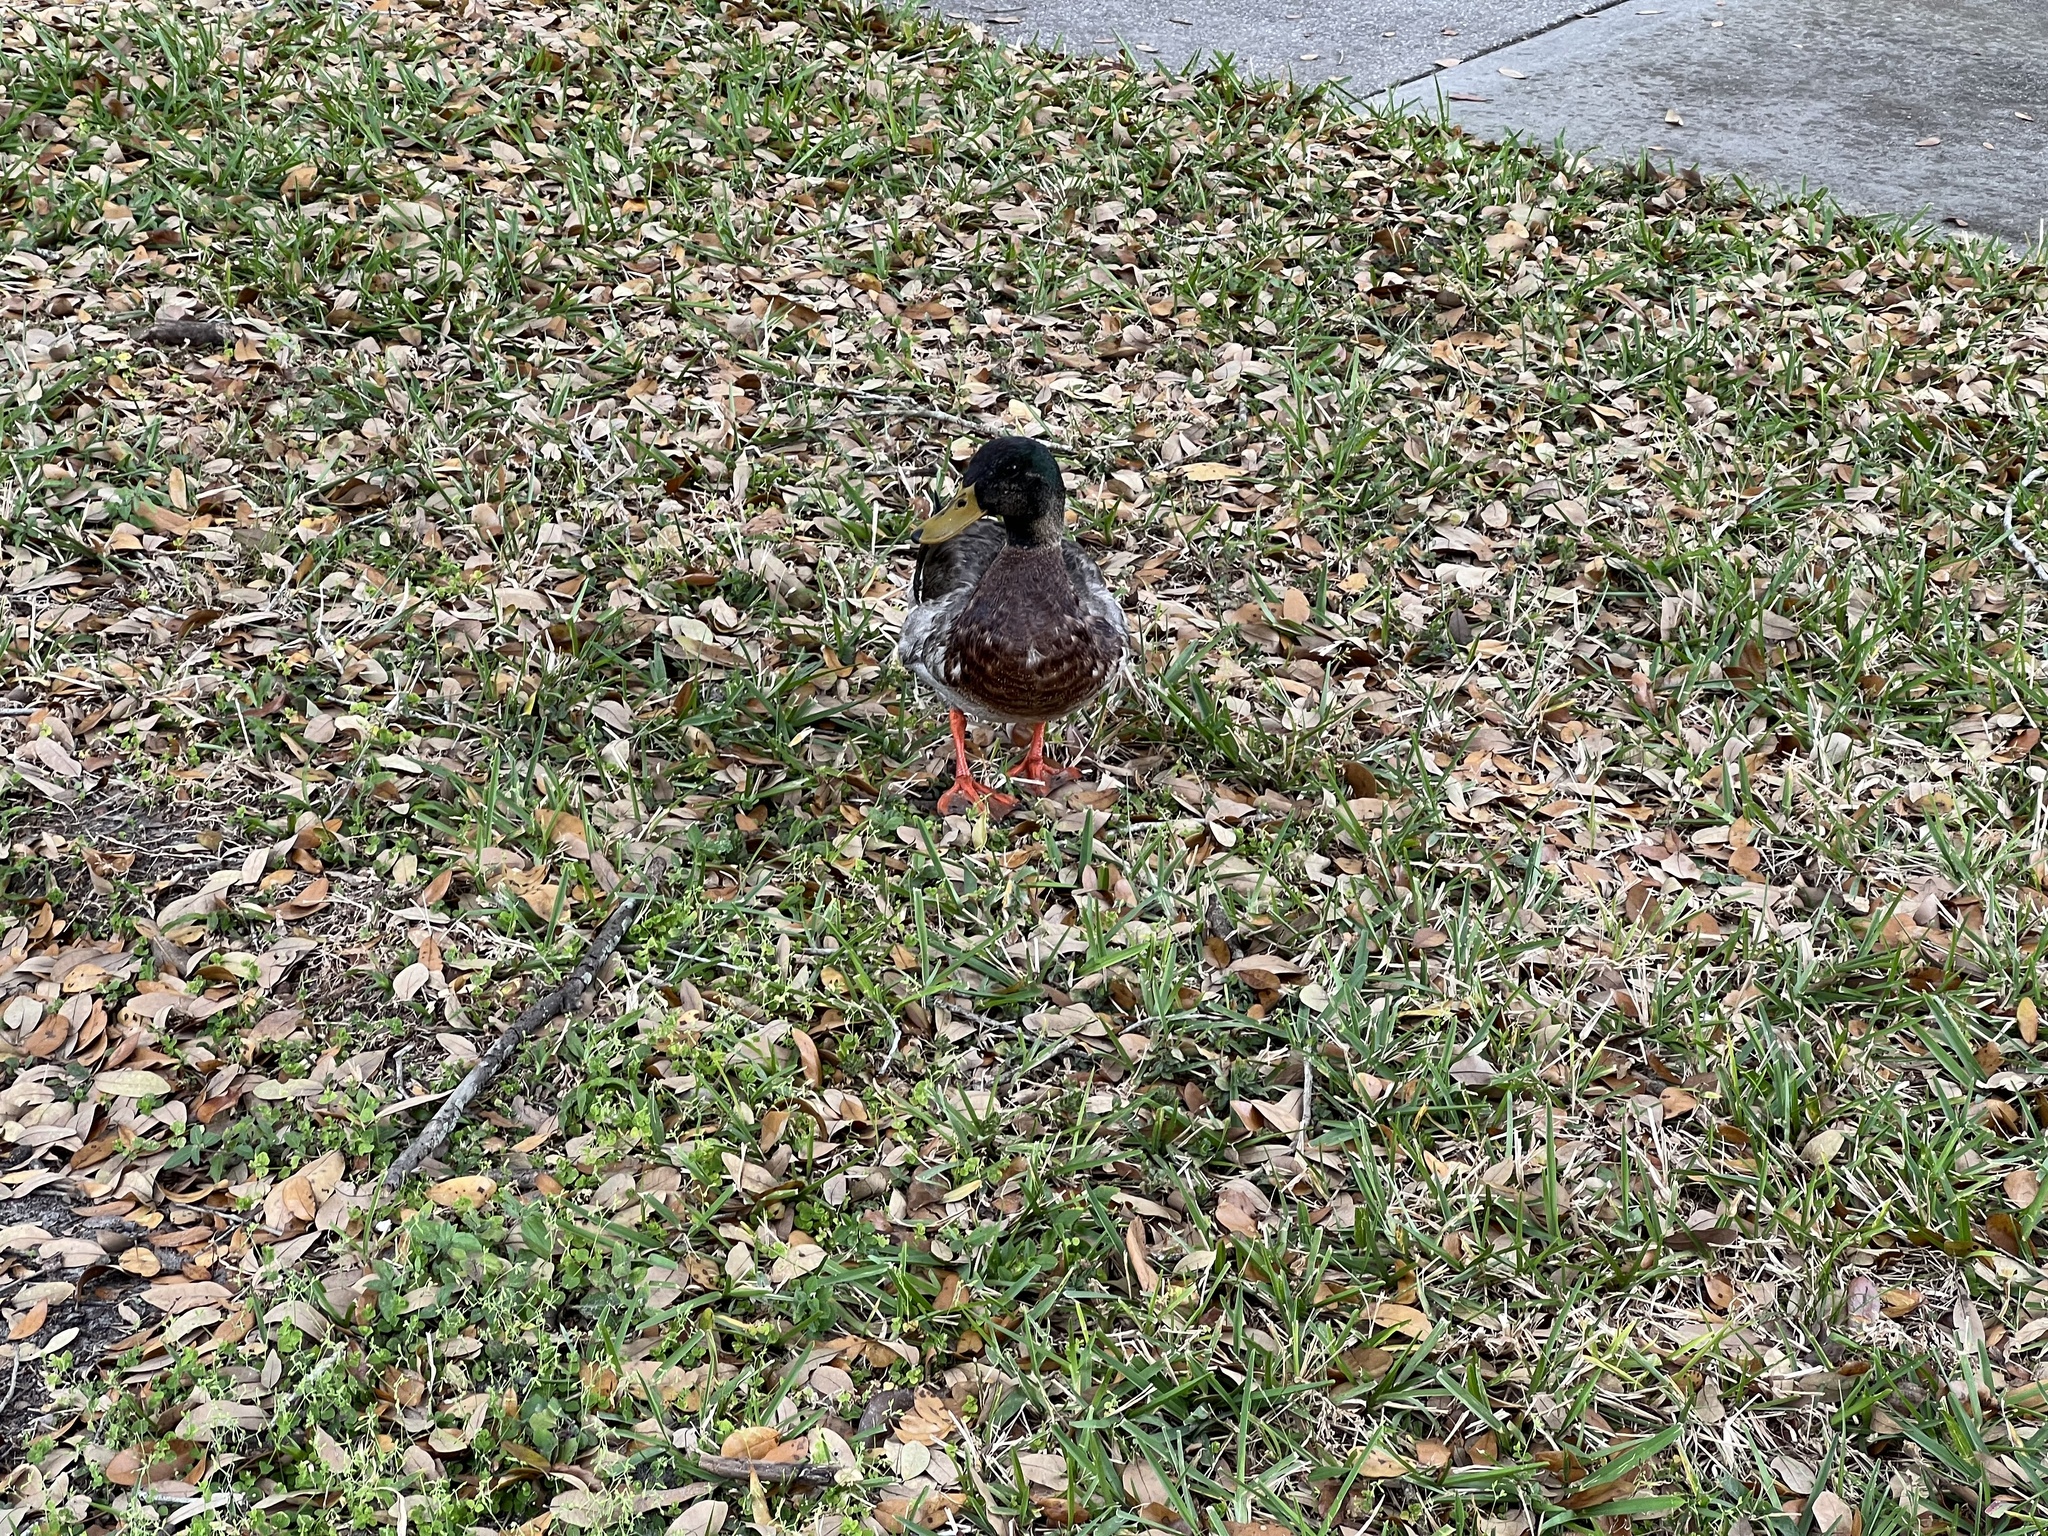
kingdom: Animalia
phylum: Chordata
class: Aves
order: Anseriformes
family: Anatidae
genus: Anas
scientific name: Anas platyrhynchos
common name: Mallard
